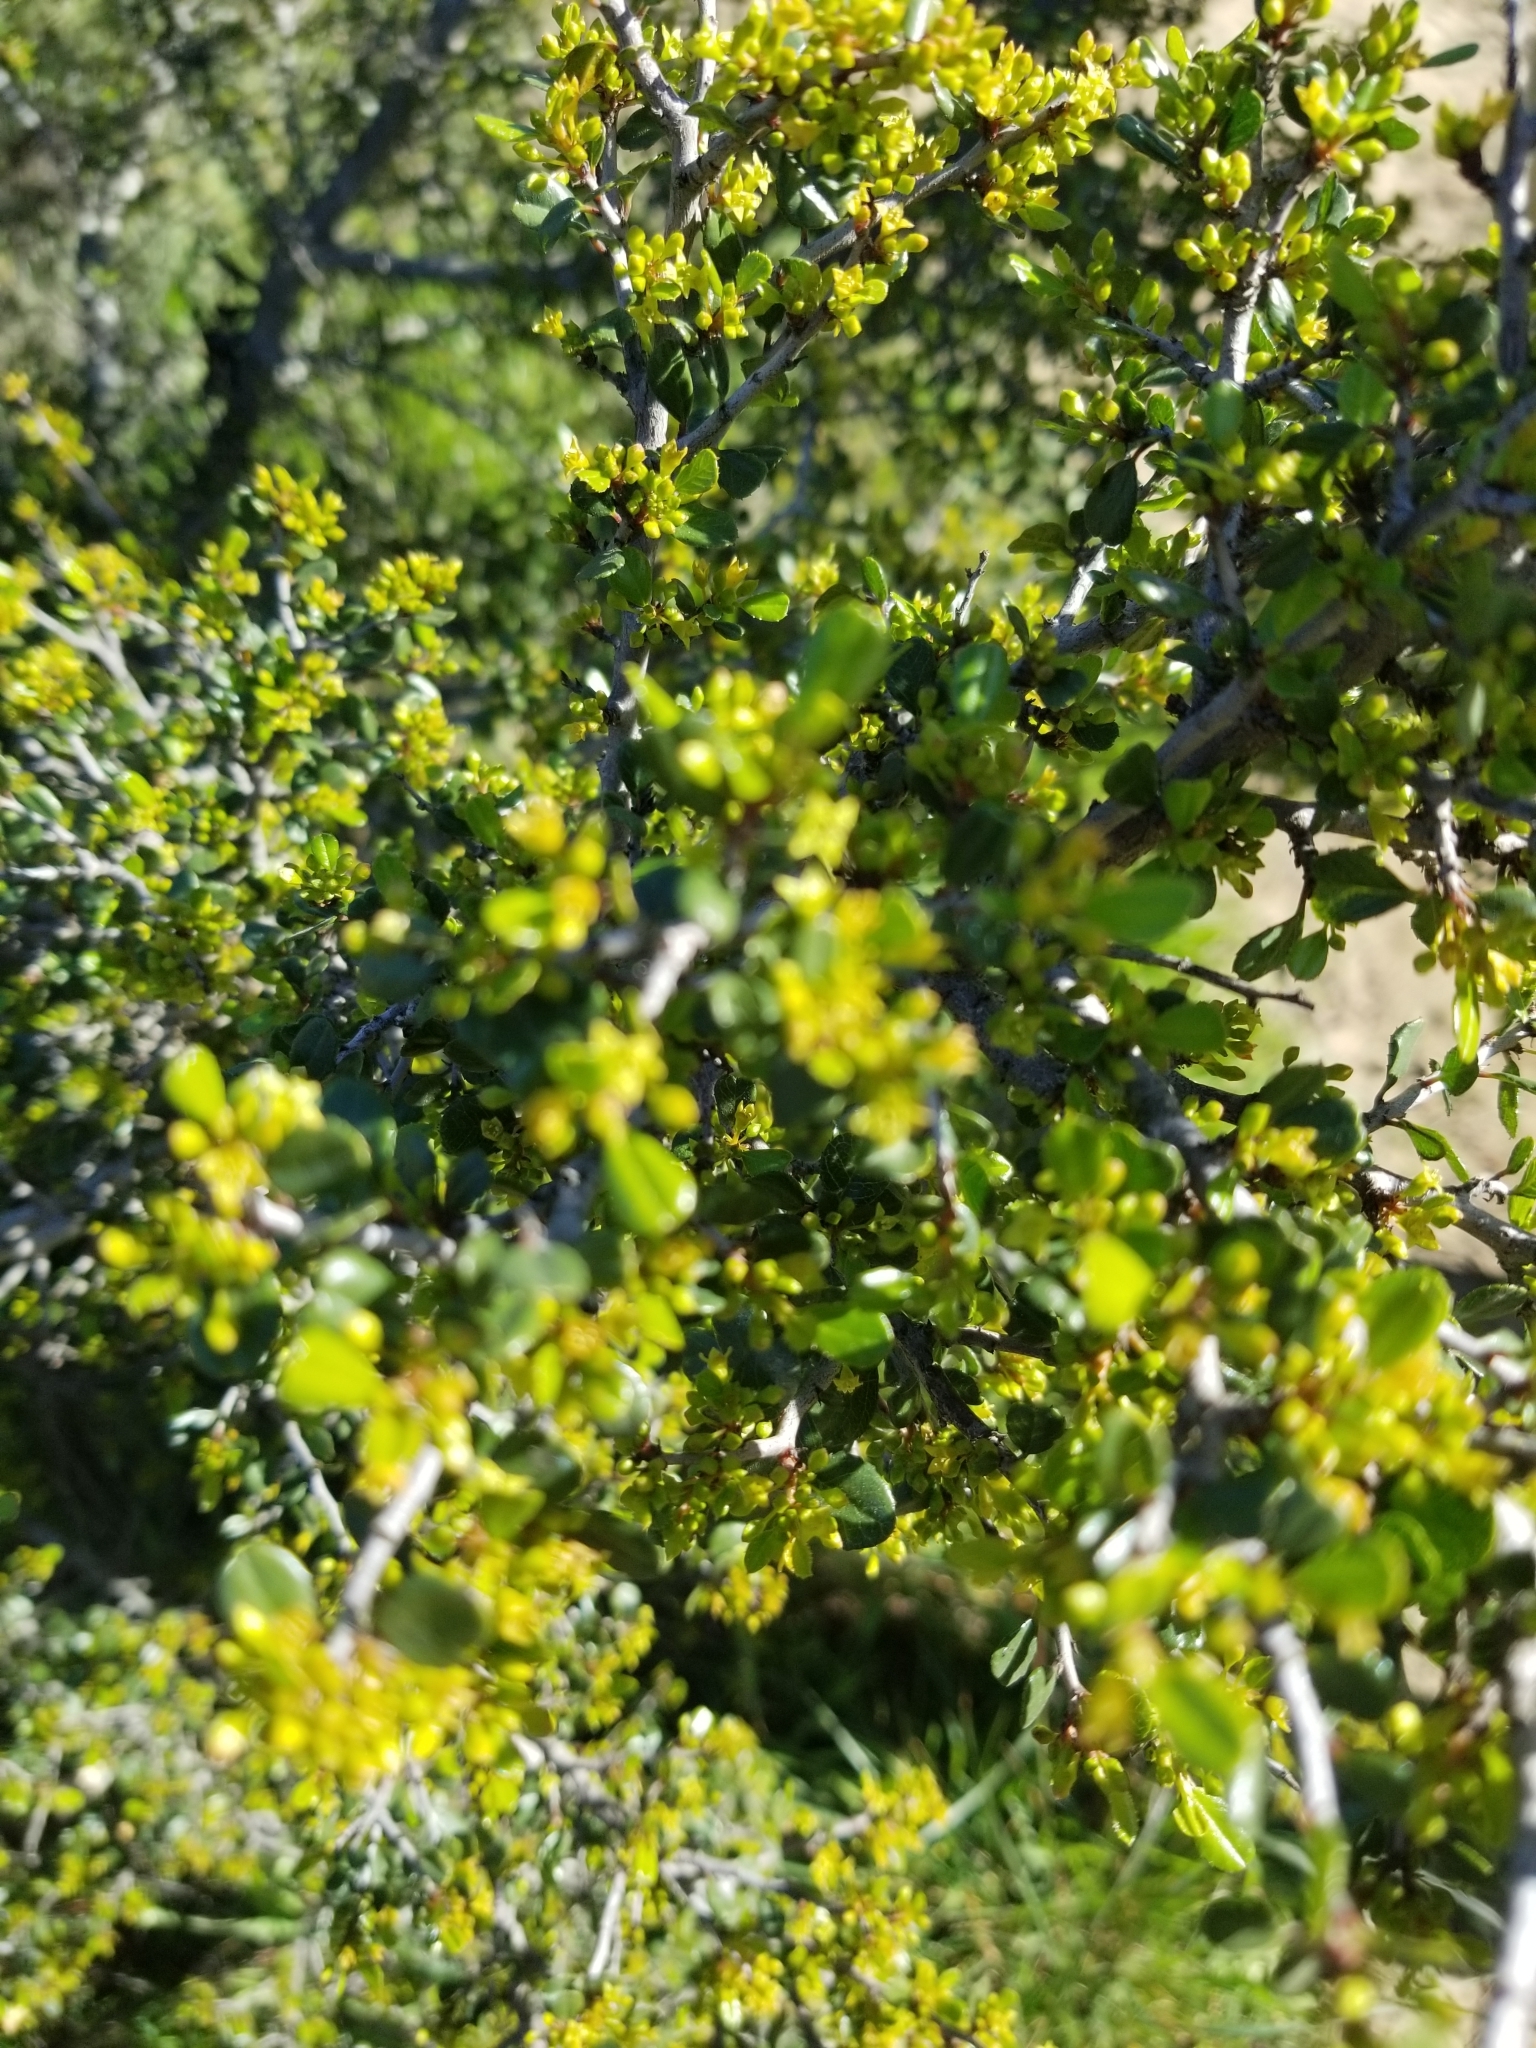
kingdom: Plantae
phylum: Tracheophyta
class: Magnoliopsida
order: Rosales
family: Rhamnaceae
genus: Endotropis
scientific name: Endotropis crocea
